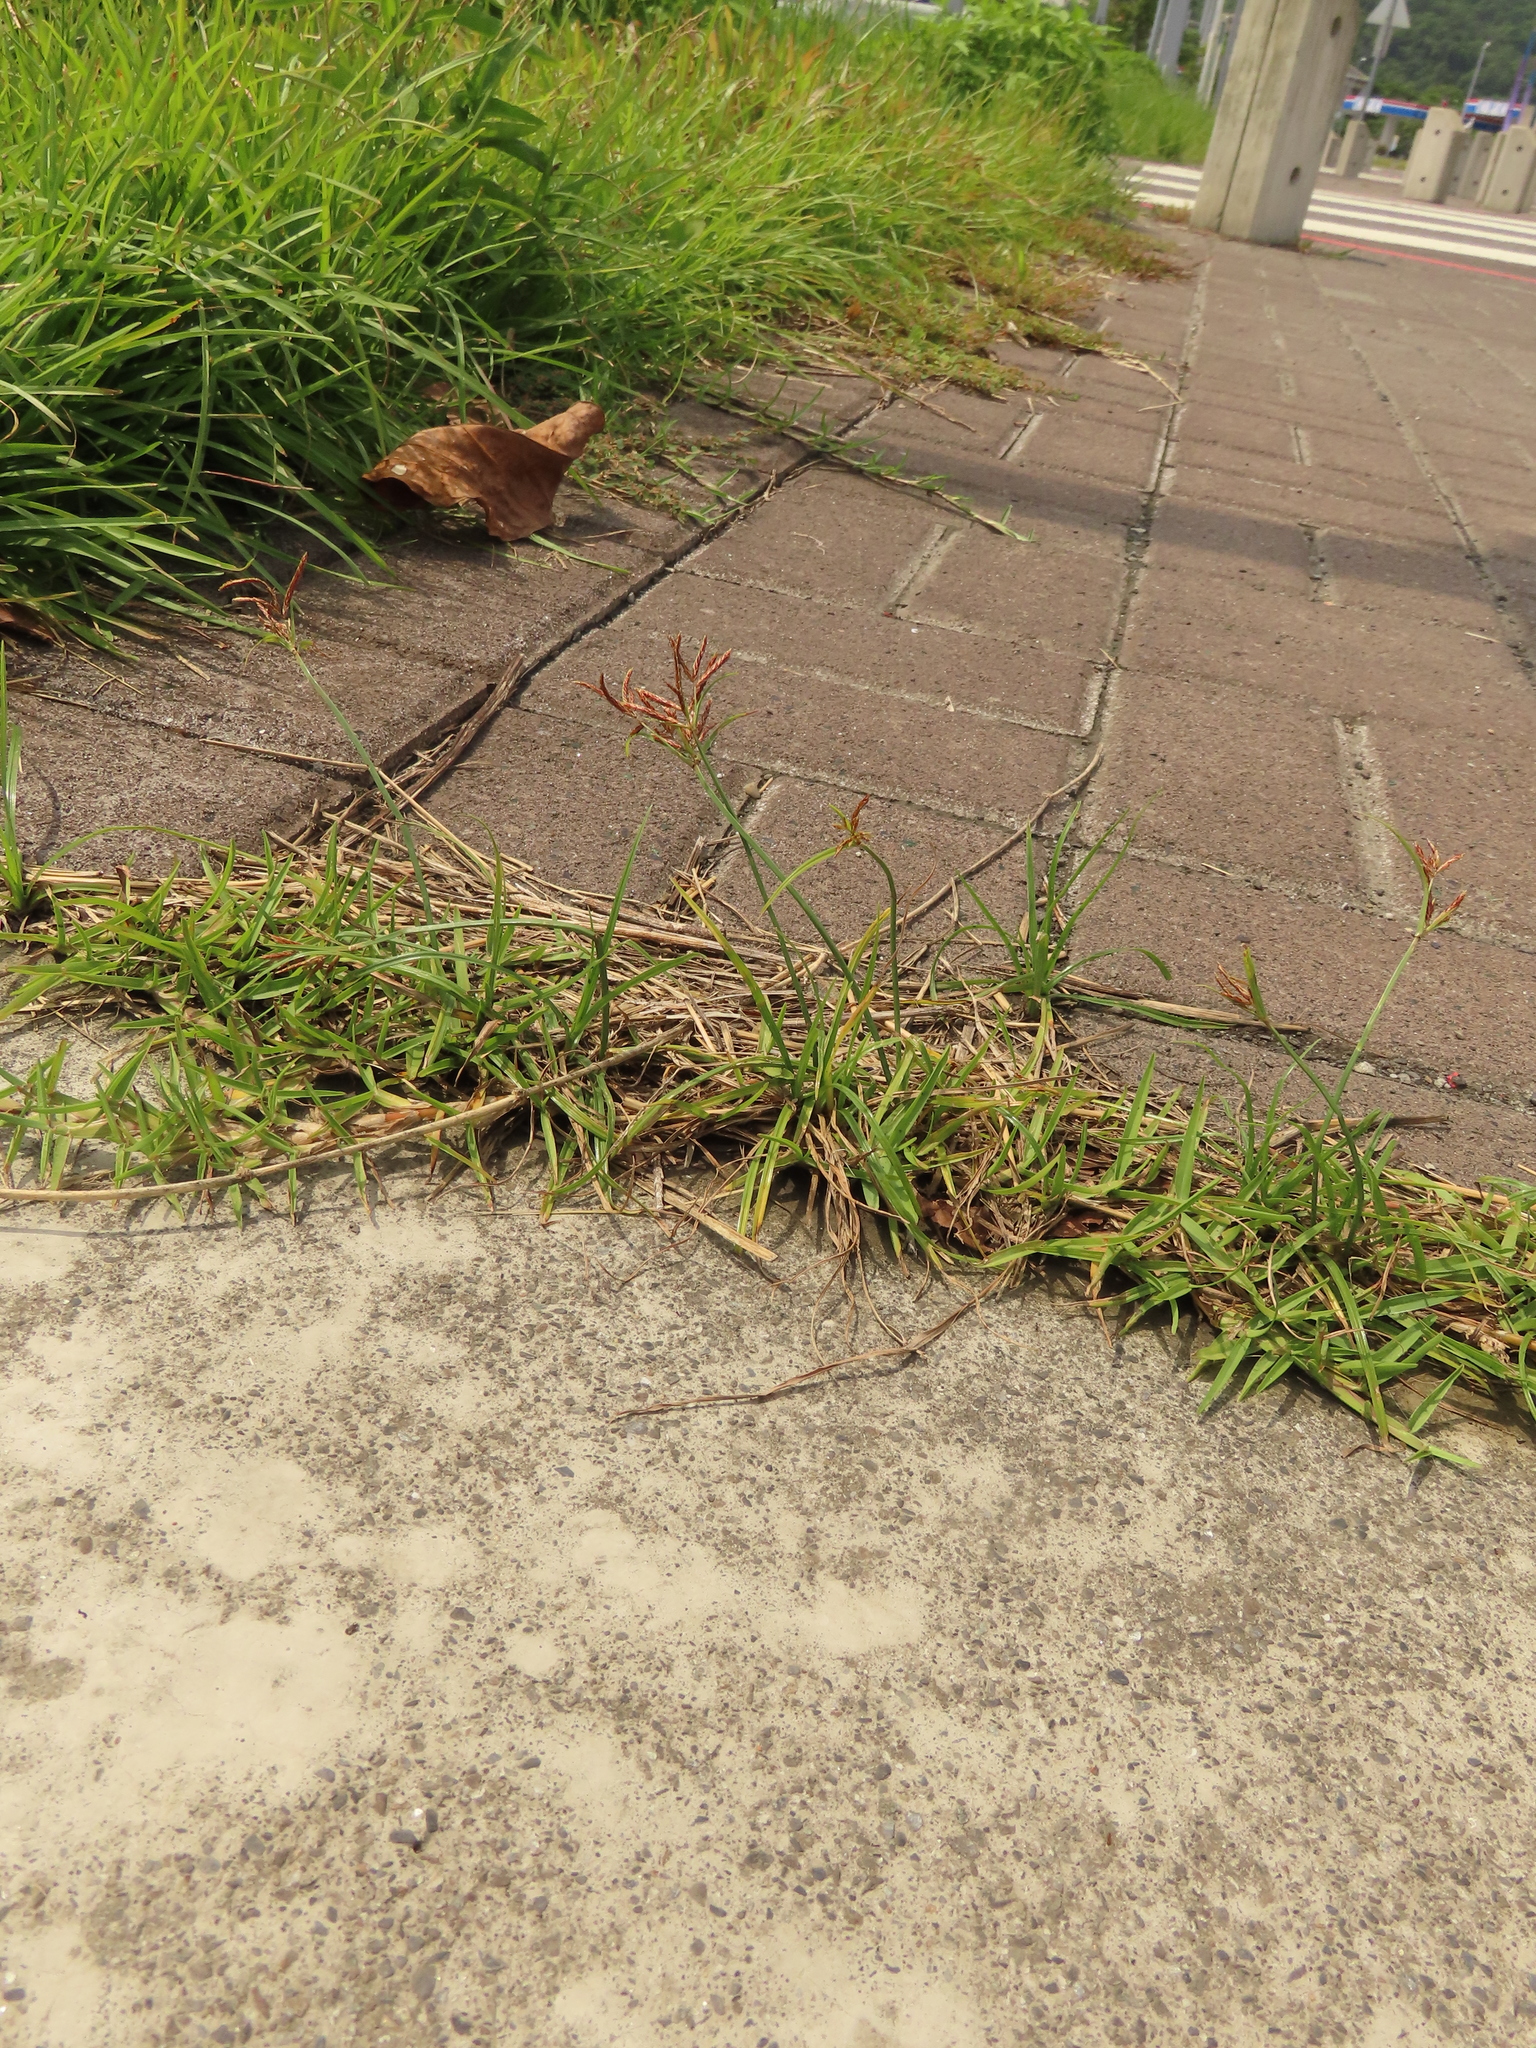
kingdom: Plantae
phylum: Tracheophyta
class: Liliopsida
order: Poales
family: Cyperaceae
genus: Cyperus
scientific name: Cyperus rotundus
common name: Nutgrass
